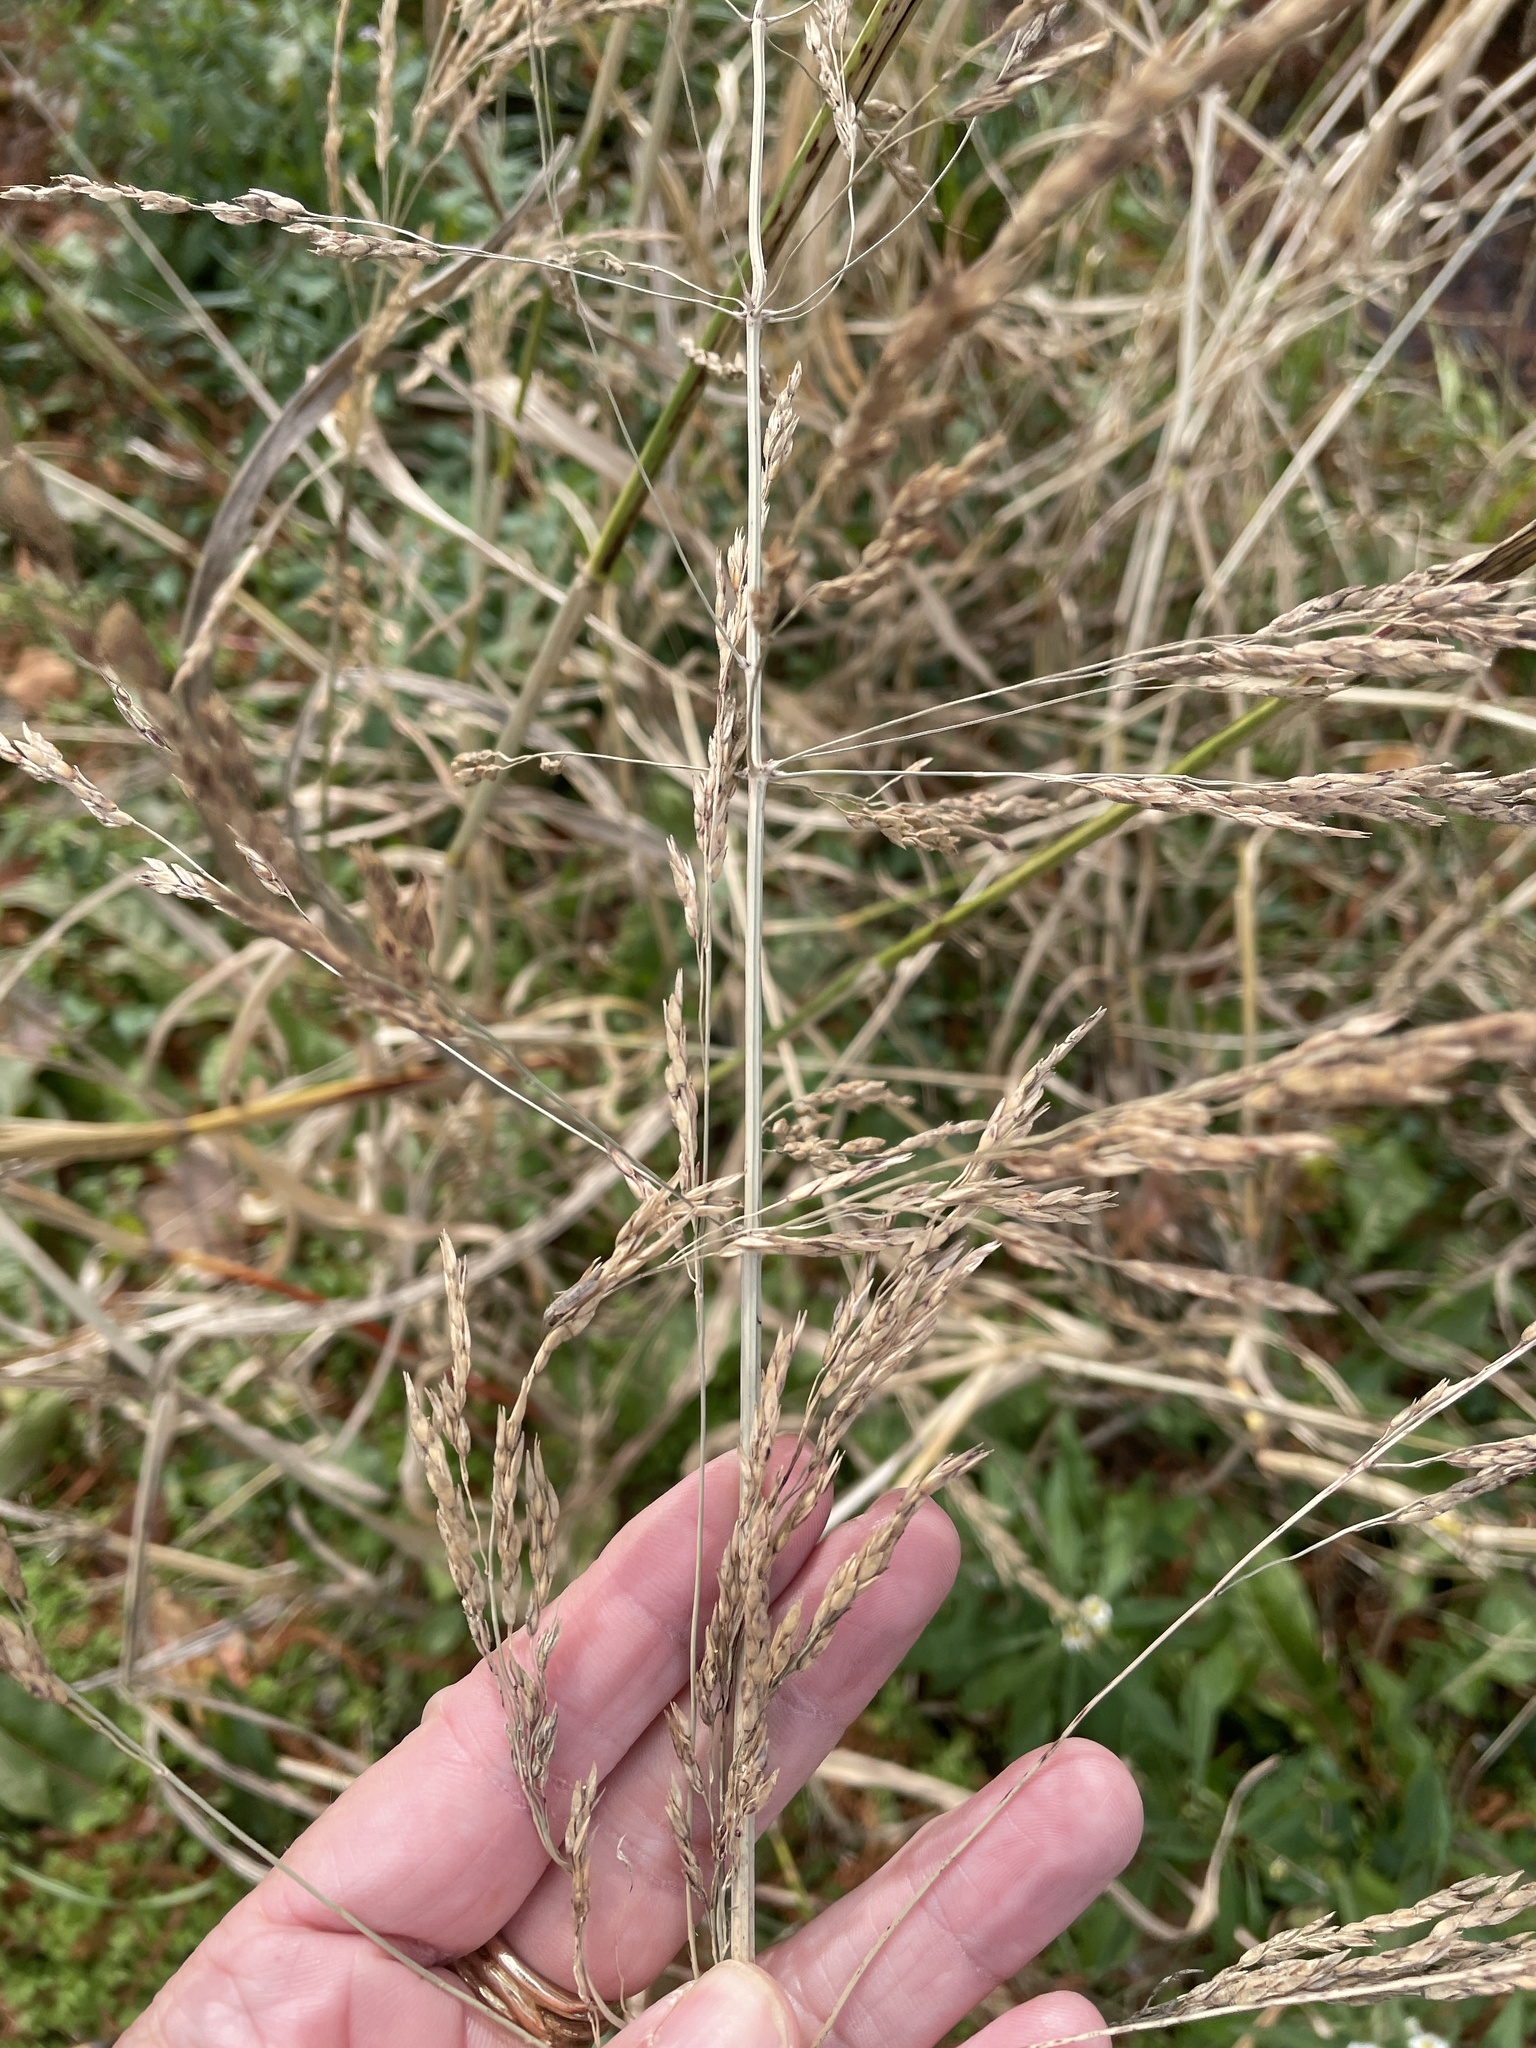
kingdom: Plantae
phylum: Tracheophyta
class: Liliopsida
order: Poales
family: Poaceae
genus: Sorghum
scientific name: Sorghum halepense
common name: Johnson-grass
